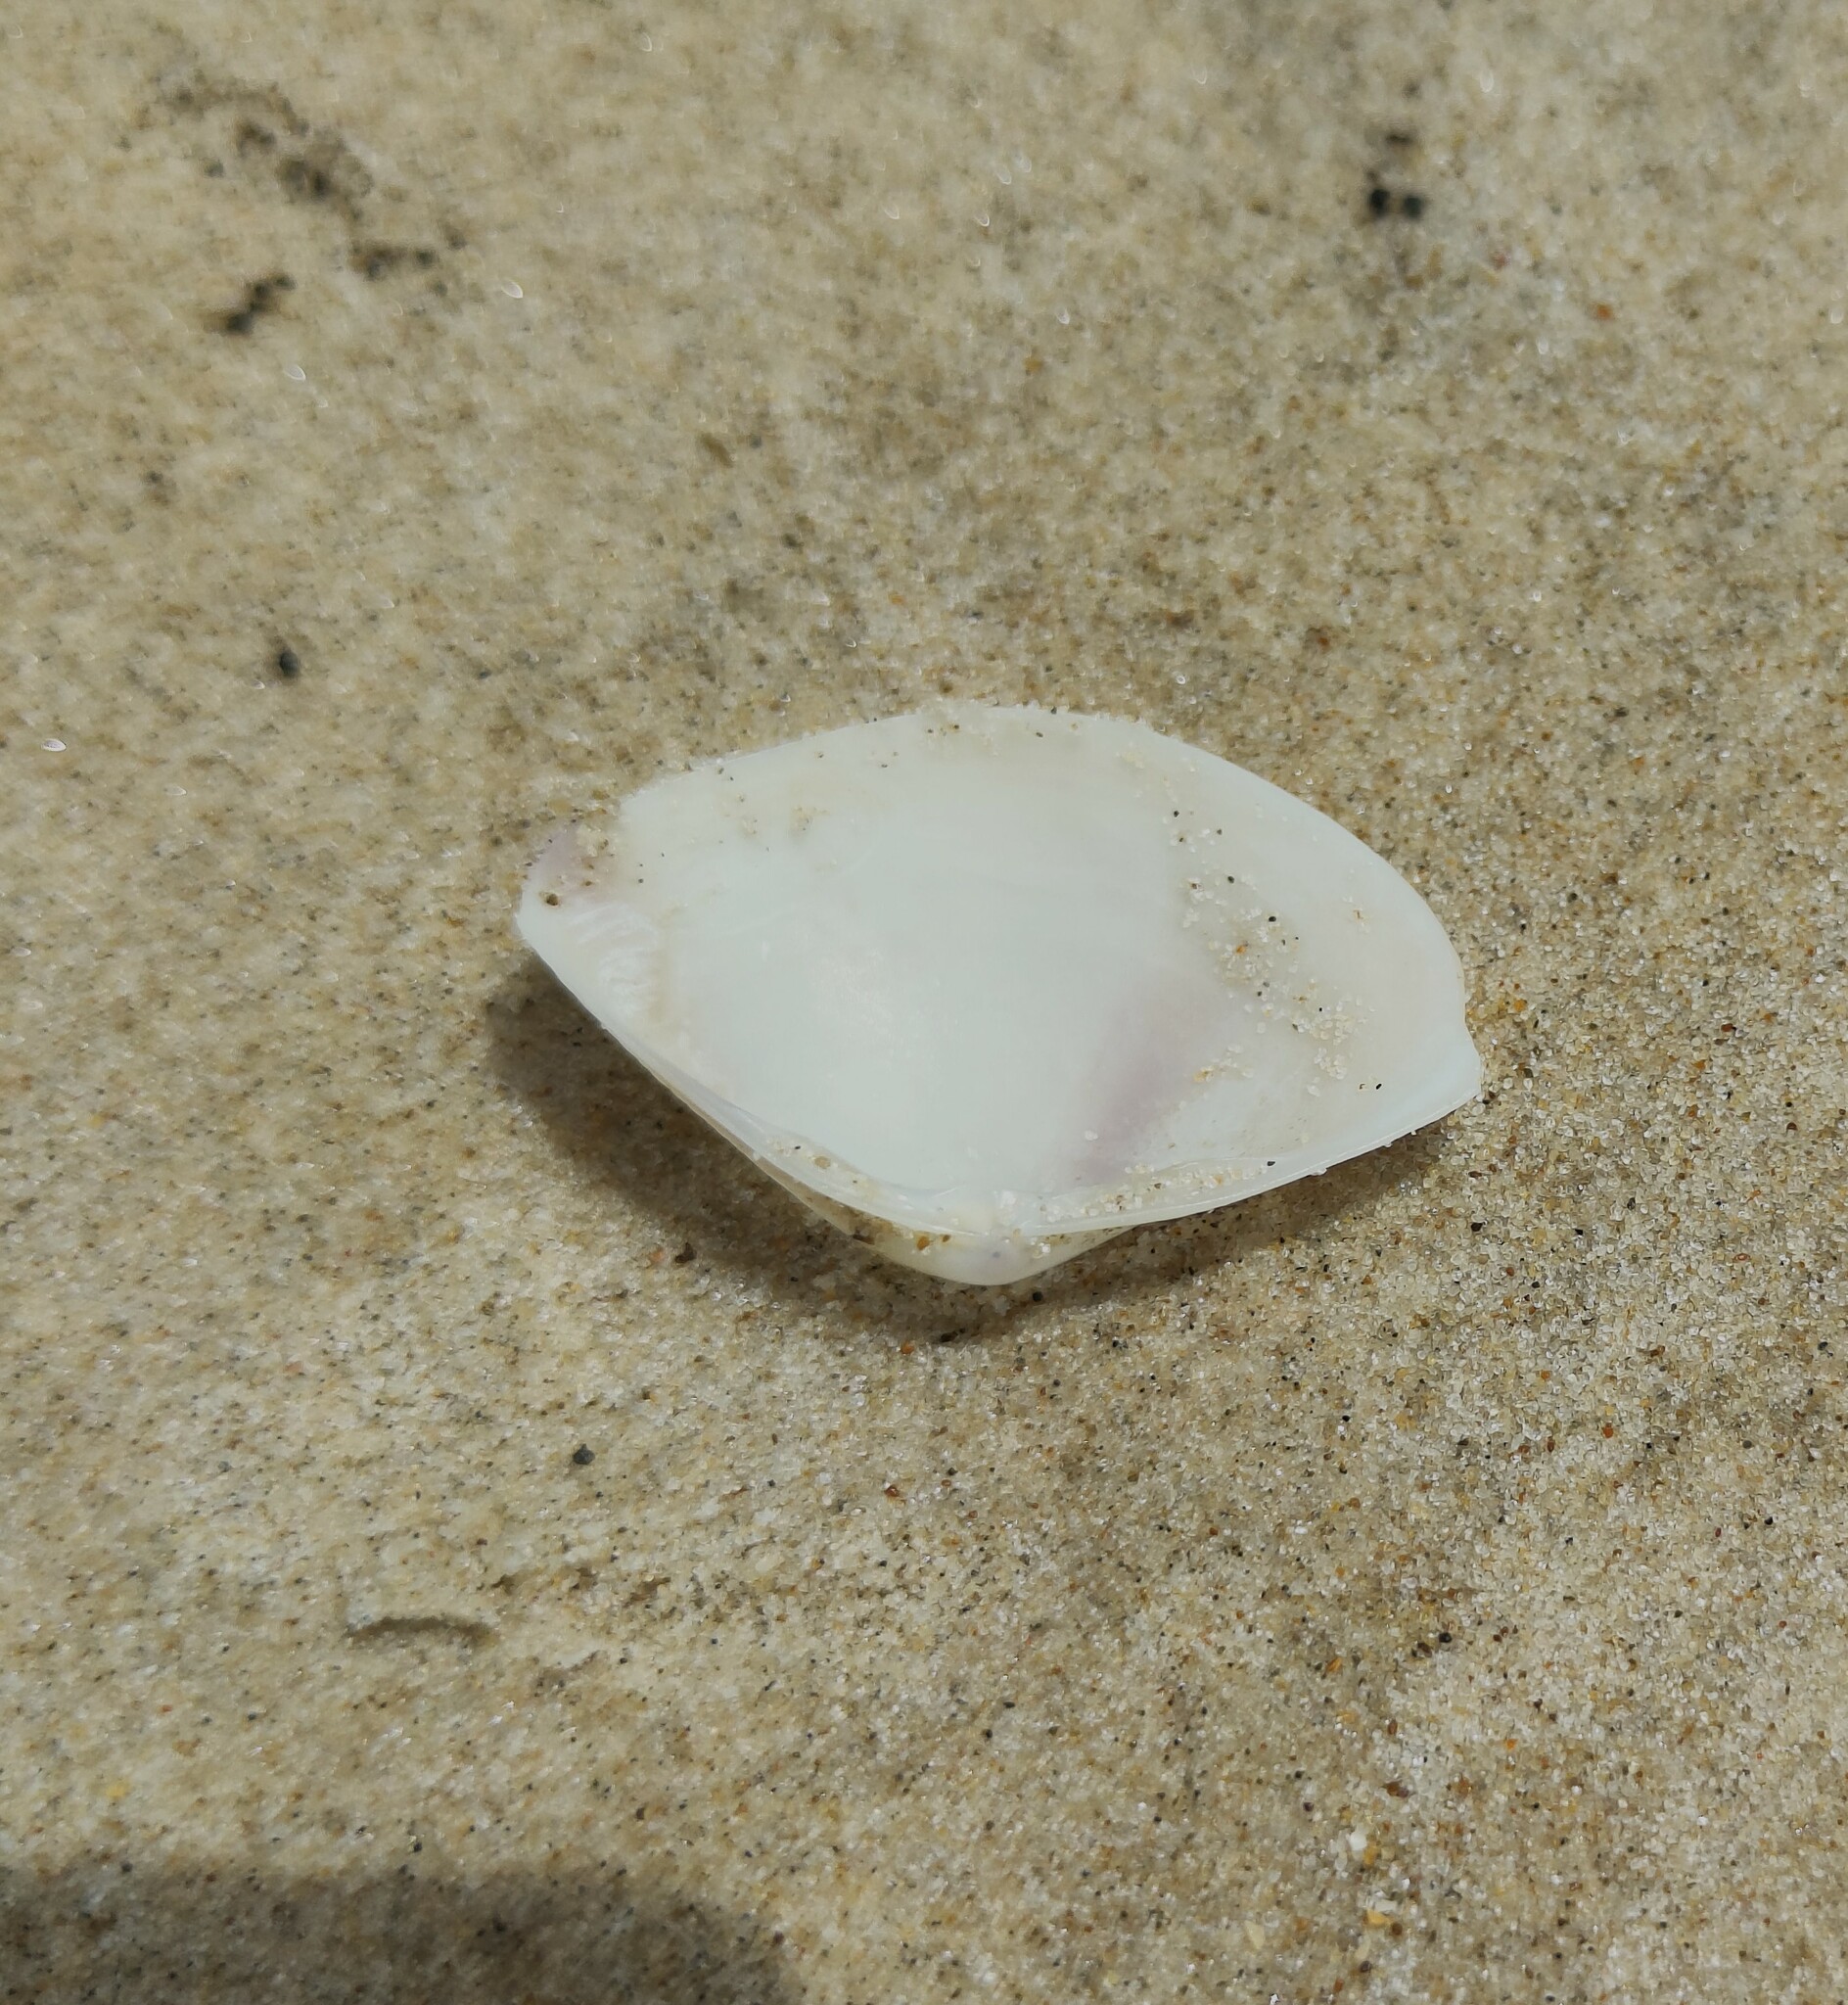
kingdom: Animalia
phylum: Mollusca
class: Bivalvia
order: Venerida
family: Mactridae
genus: Austromactra
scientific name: Austromactra rufescens
